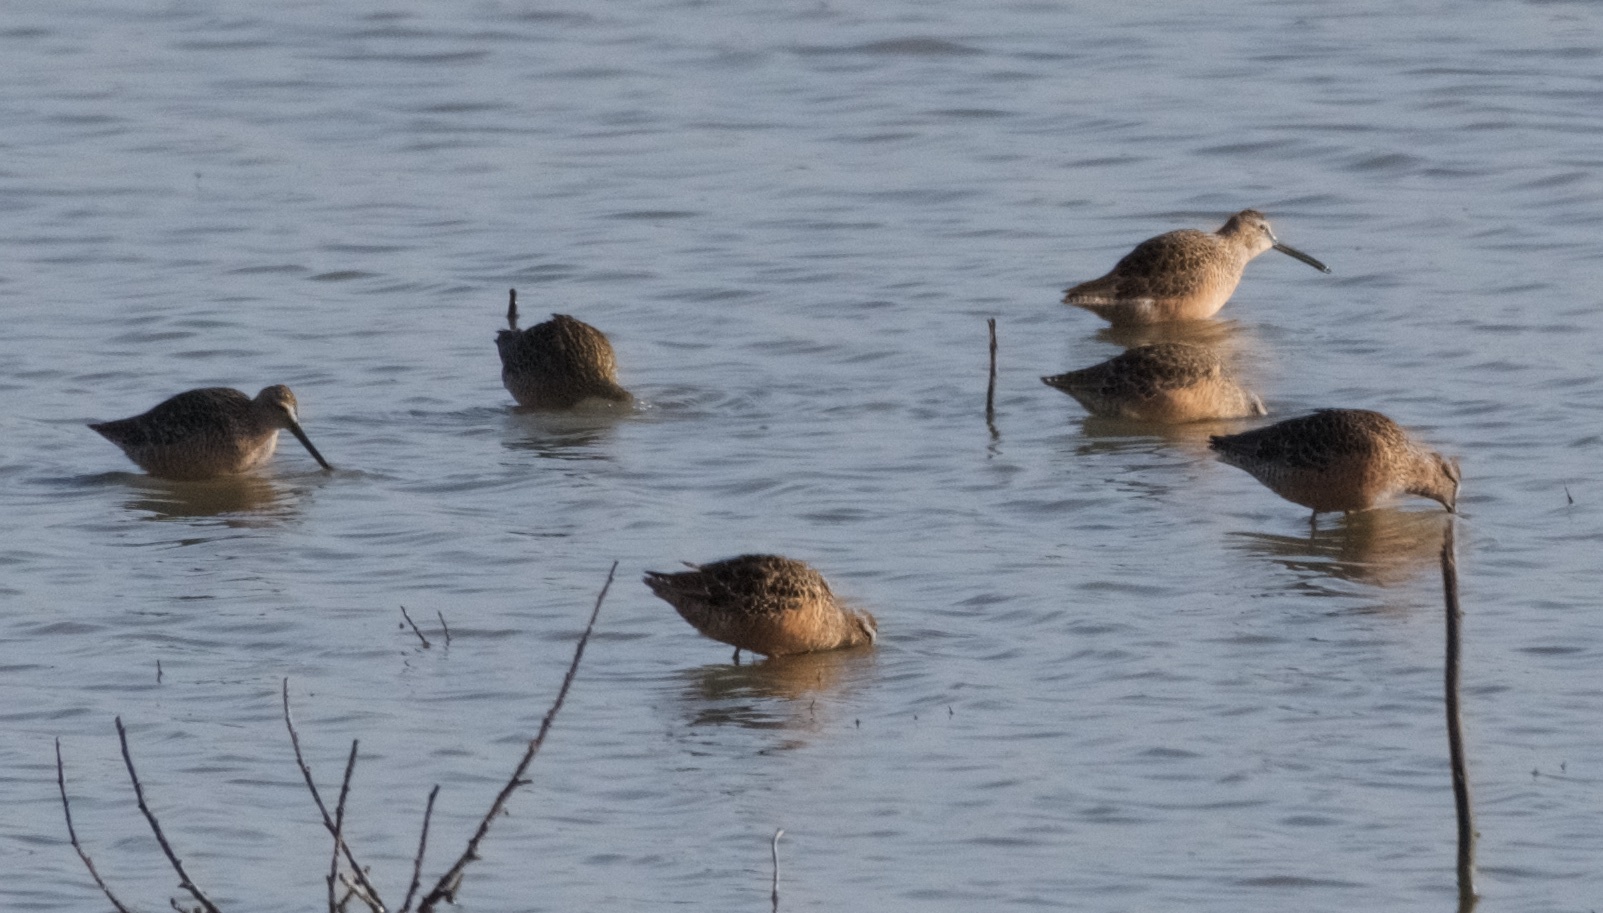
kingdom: Animalia
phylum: Chordata
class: Aves
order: Charadriiformes
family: Scolopacidae
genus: Limnodromus
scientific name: Limnodromus scolopaceus
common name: Long-billed dowitcher
